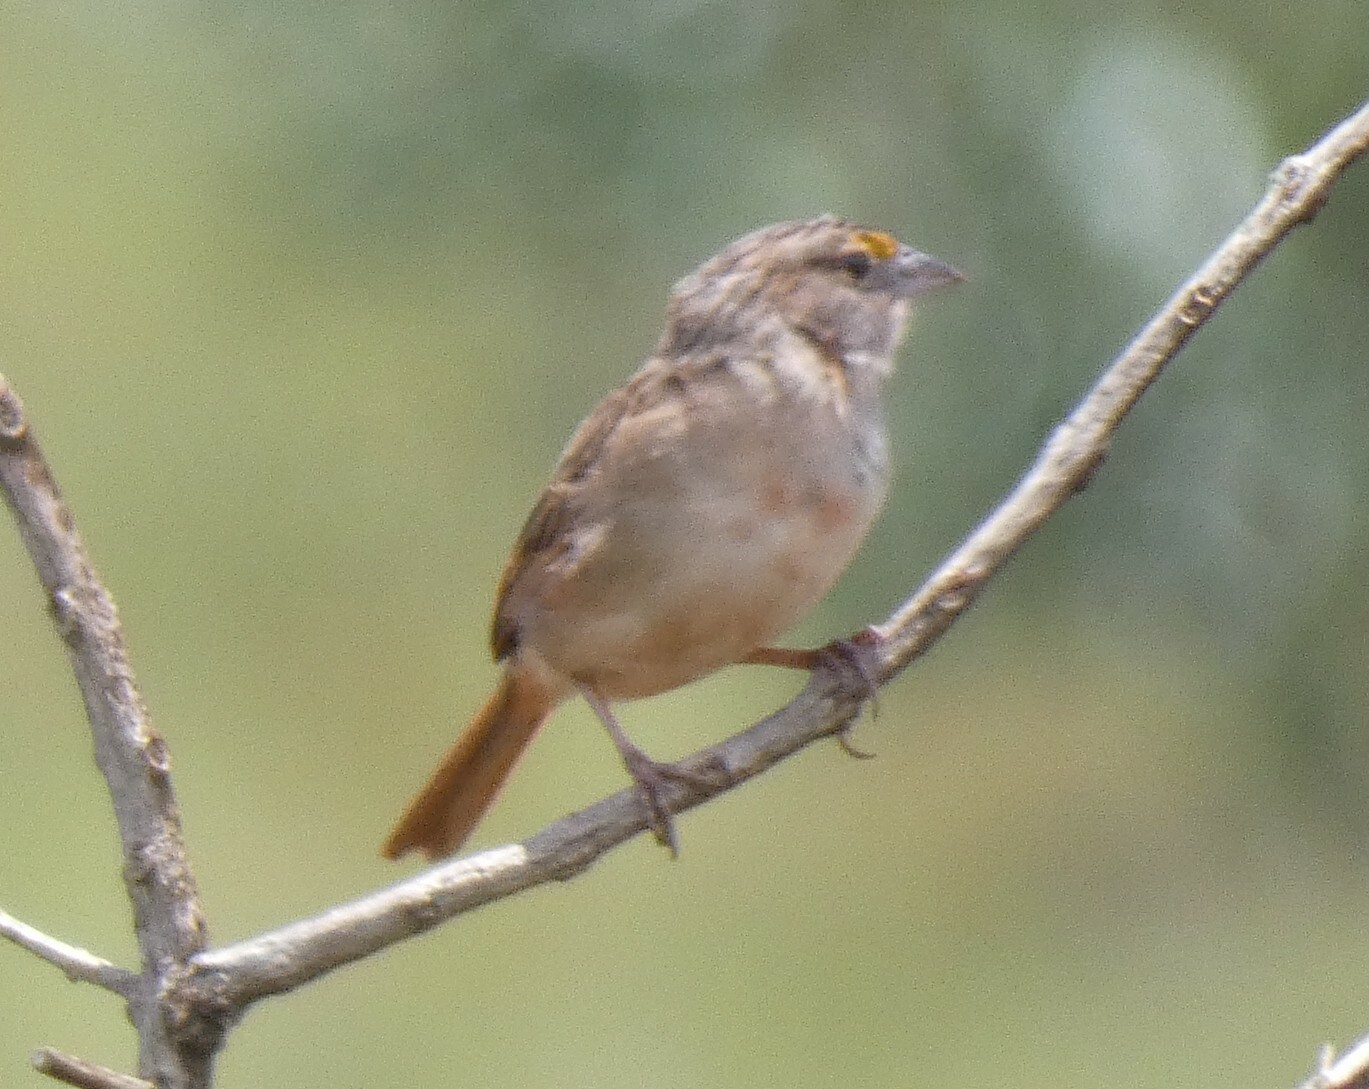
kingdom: Animalia
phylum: Chordata
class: Aves
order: Passeriformes
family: Passerellidae
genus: Ammodramus
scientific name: Ammodramus humeralis
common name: Grassland sparrow
